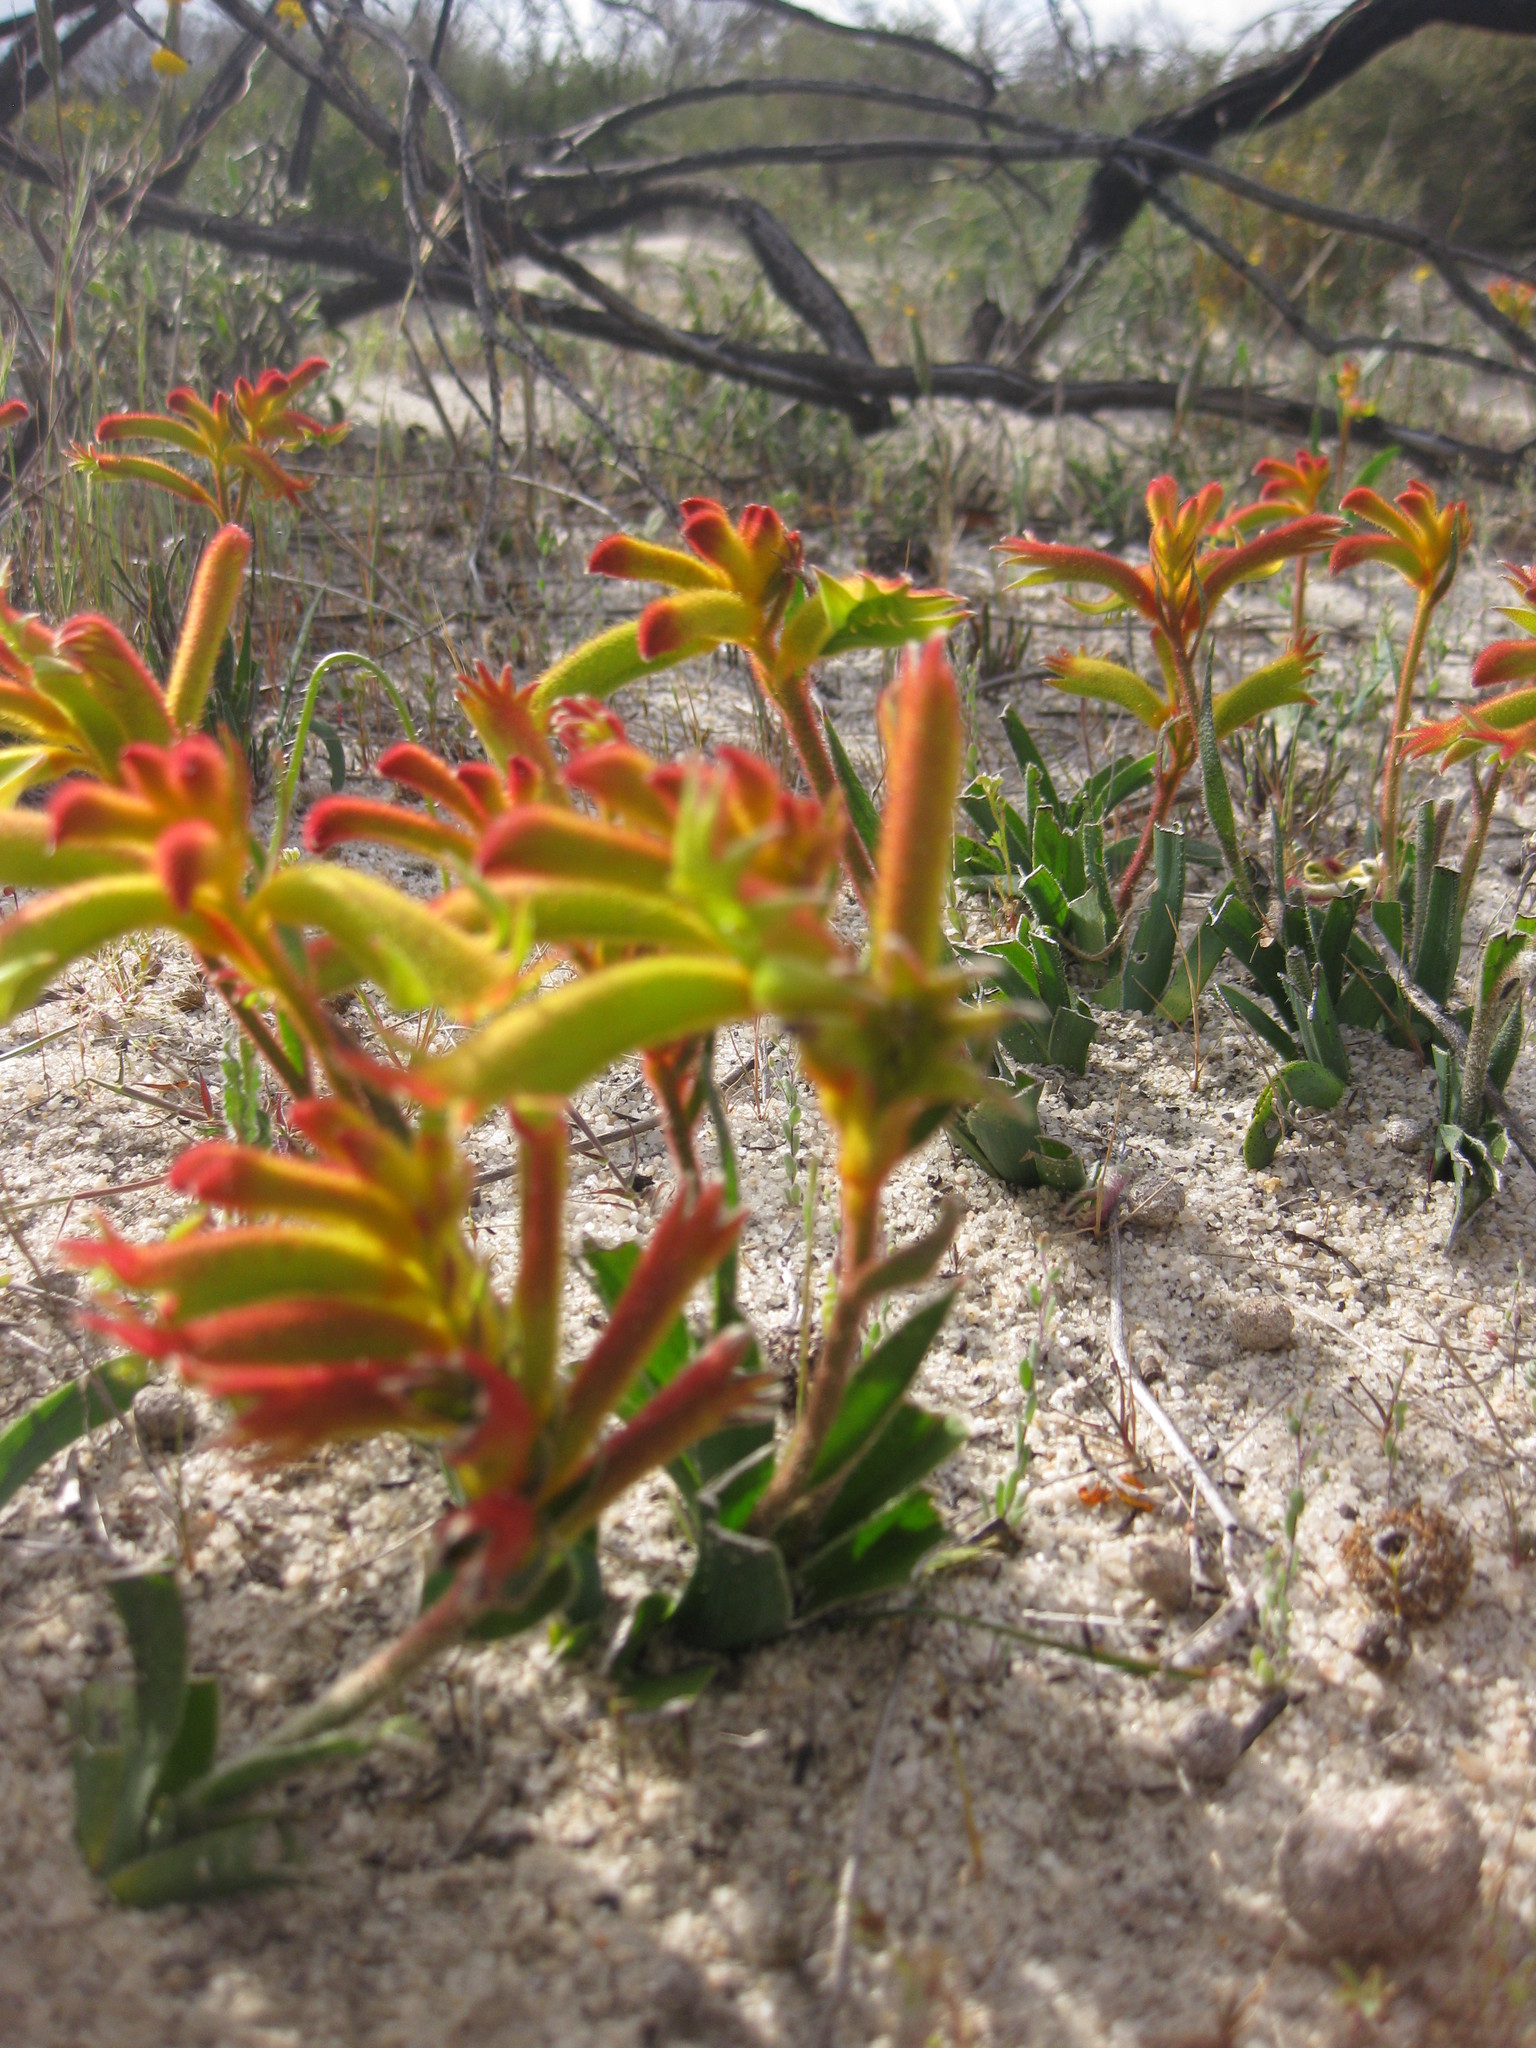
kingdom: Plantae
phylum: Tracheophyta
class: Liliopsida
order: Commelinales
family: Haemodoraceae
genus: Anigozanthos
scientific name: Anigozanthos humilis
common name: Cat's-paw
